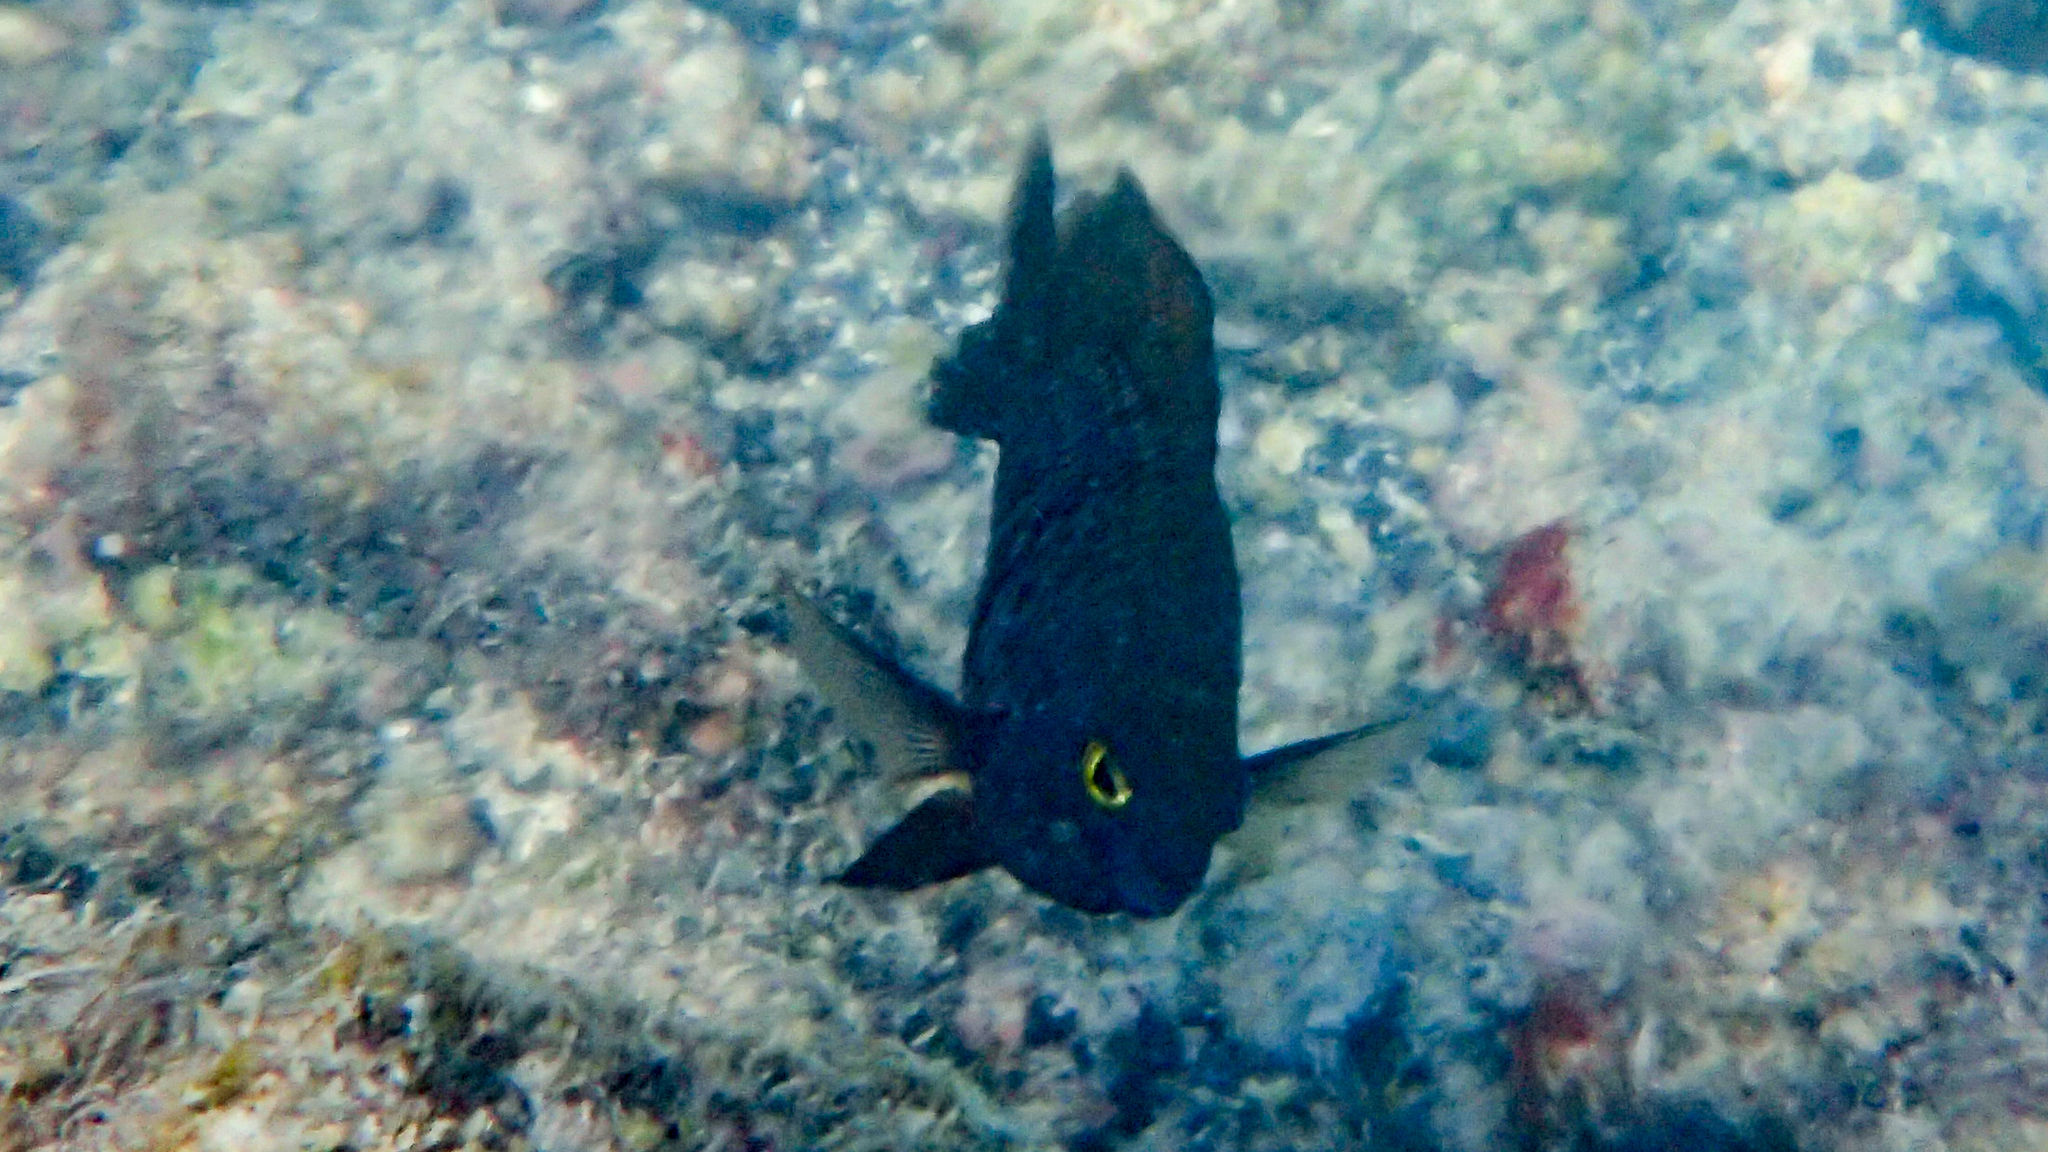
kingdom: Animalia
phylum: Chordata
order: Perciformes
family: Pomacentridae
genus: Stegastes
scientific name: Stegastes fasciolatus
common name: Pacific gregory
